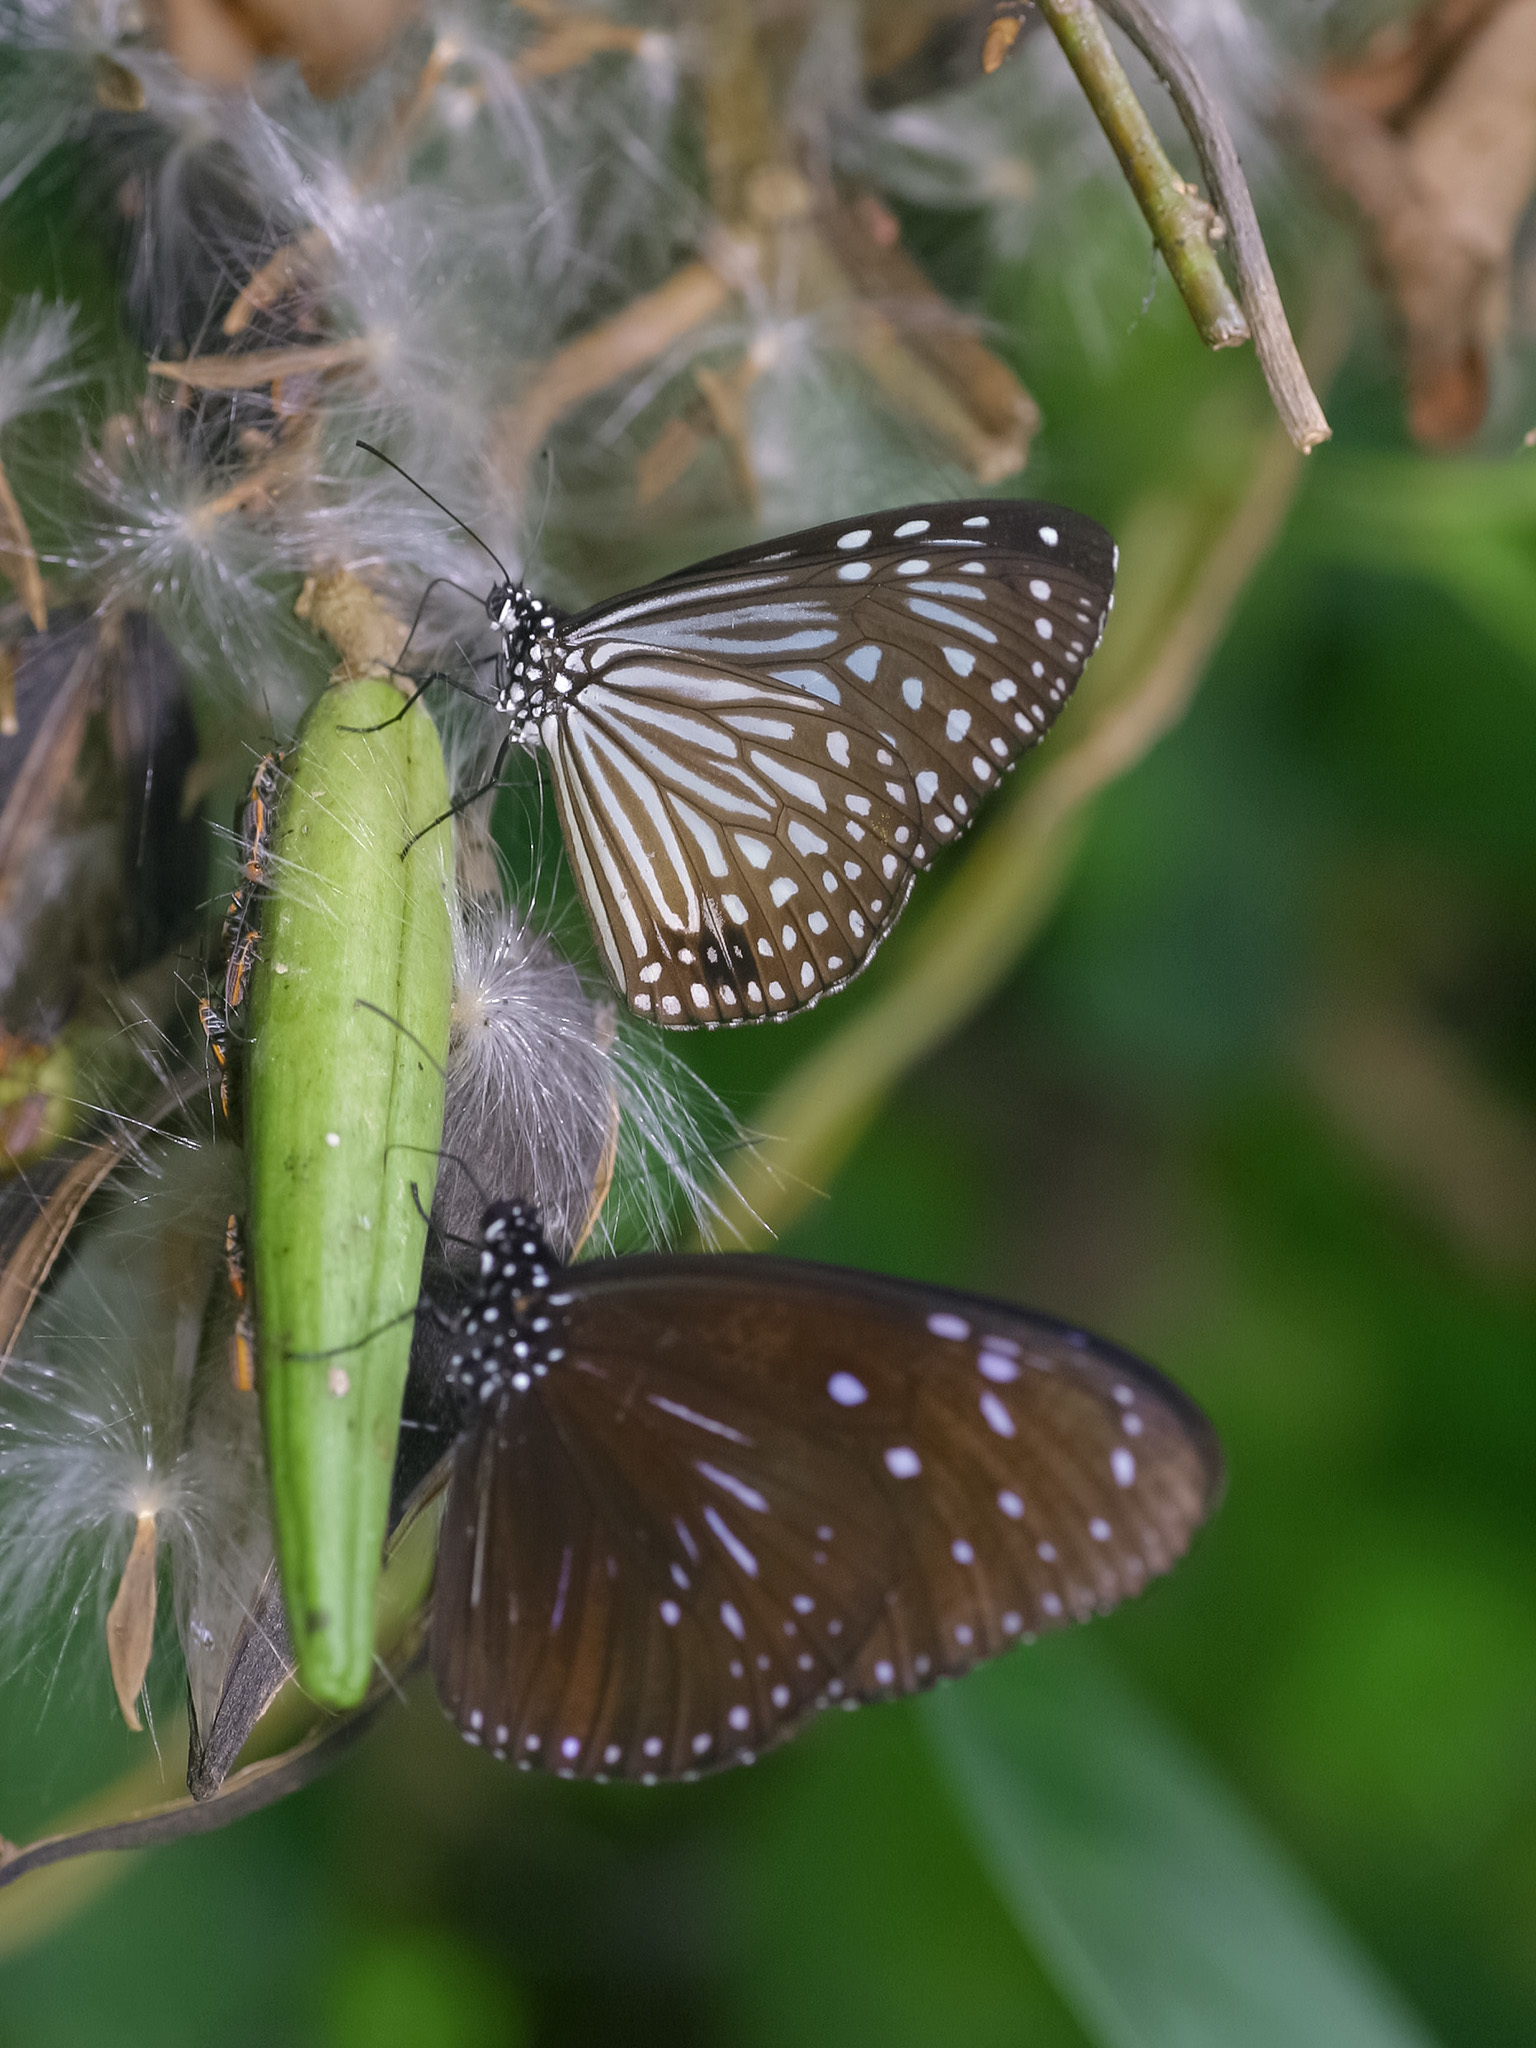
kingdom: Animalia
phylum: Arthropoda
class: Insecta
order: Lepidoptera
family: Nymphalidae
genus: Parantica
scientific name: Parantica agleoides
